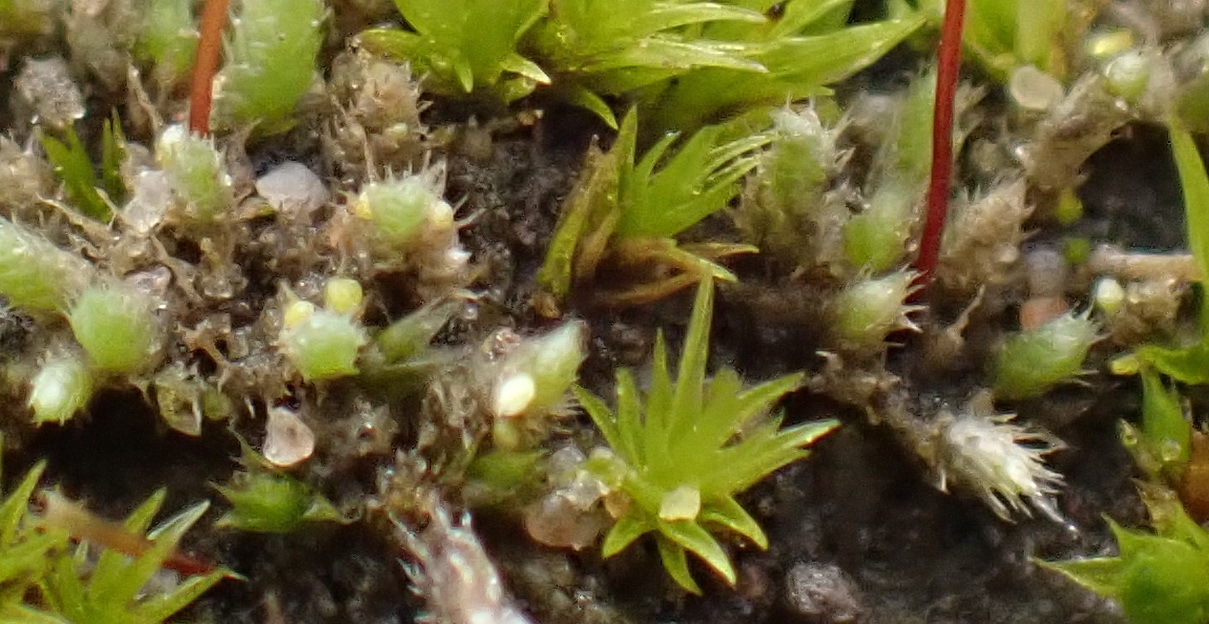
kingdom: Plantae
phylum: Bryophyta
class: Bryopsida
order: Bryales
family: Bryaceae
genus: Bryum
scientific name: Bryum argenteum
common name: Silver-moss
